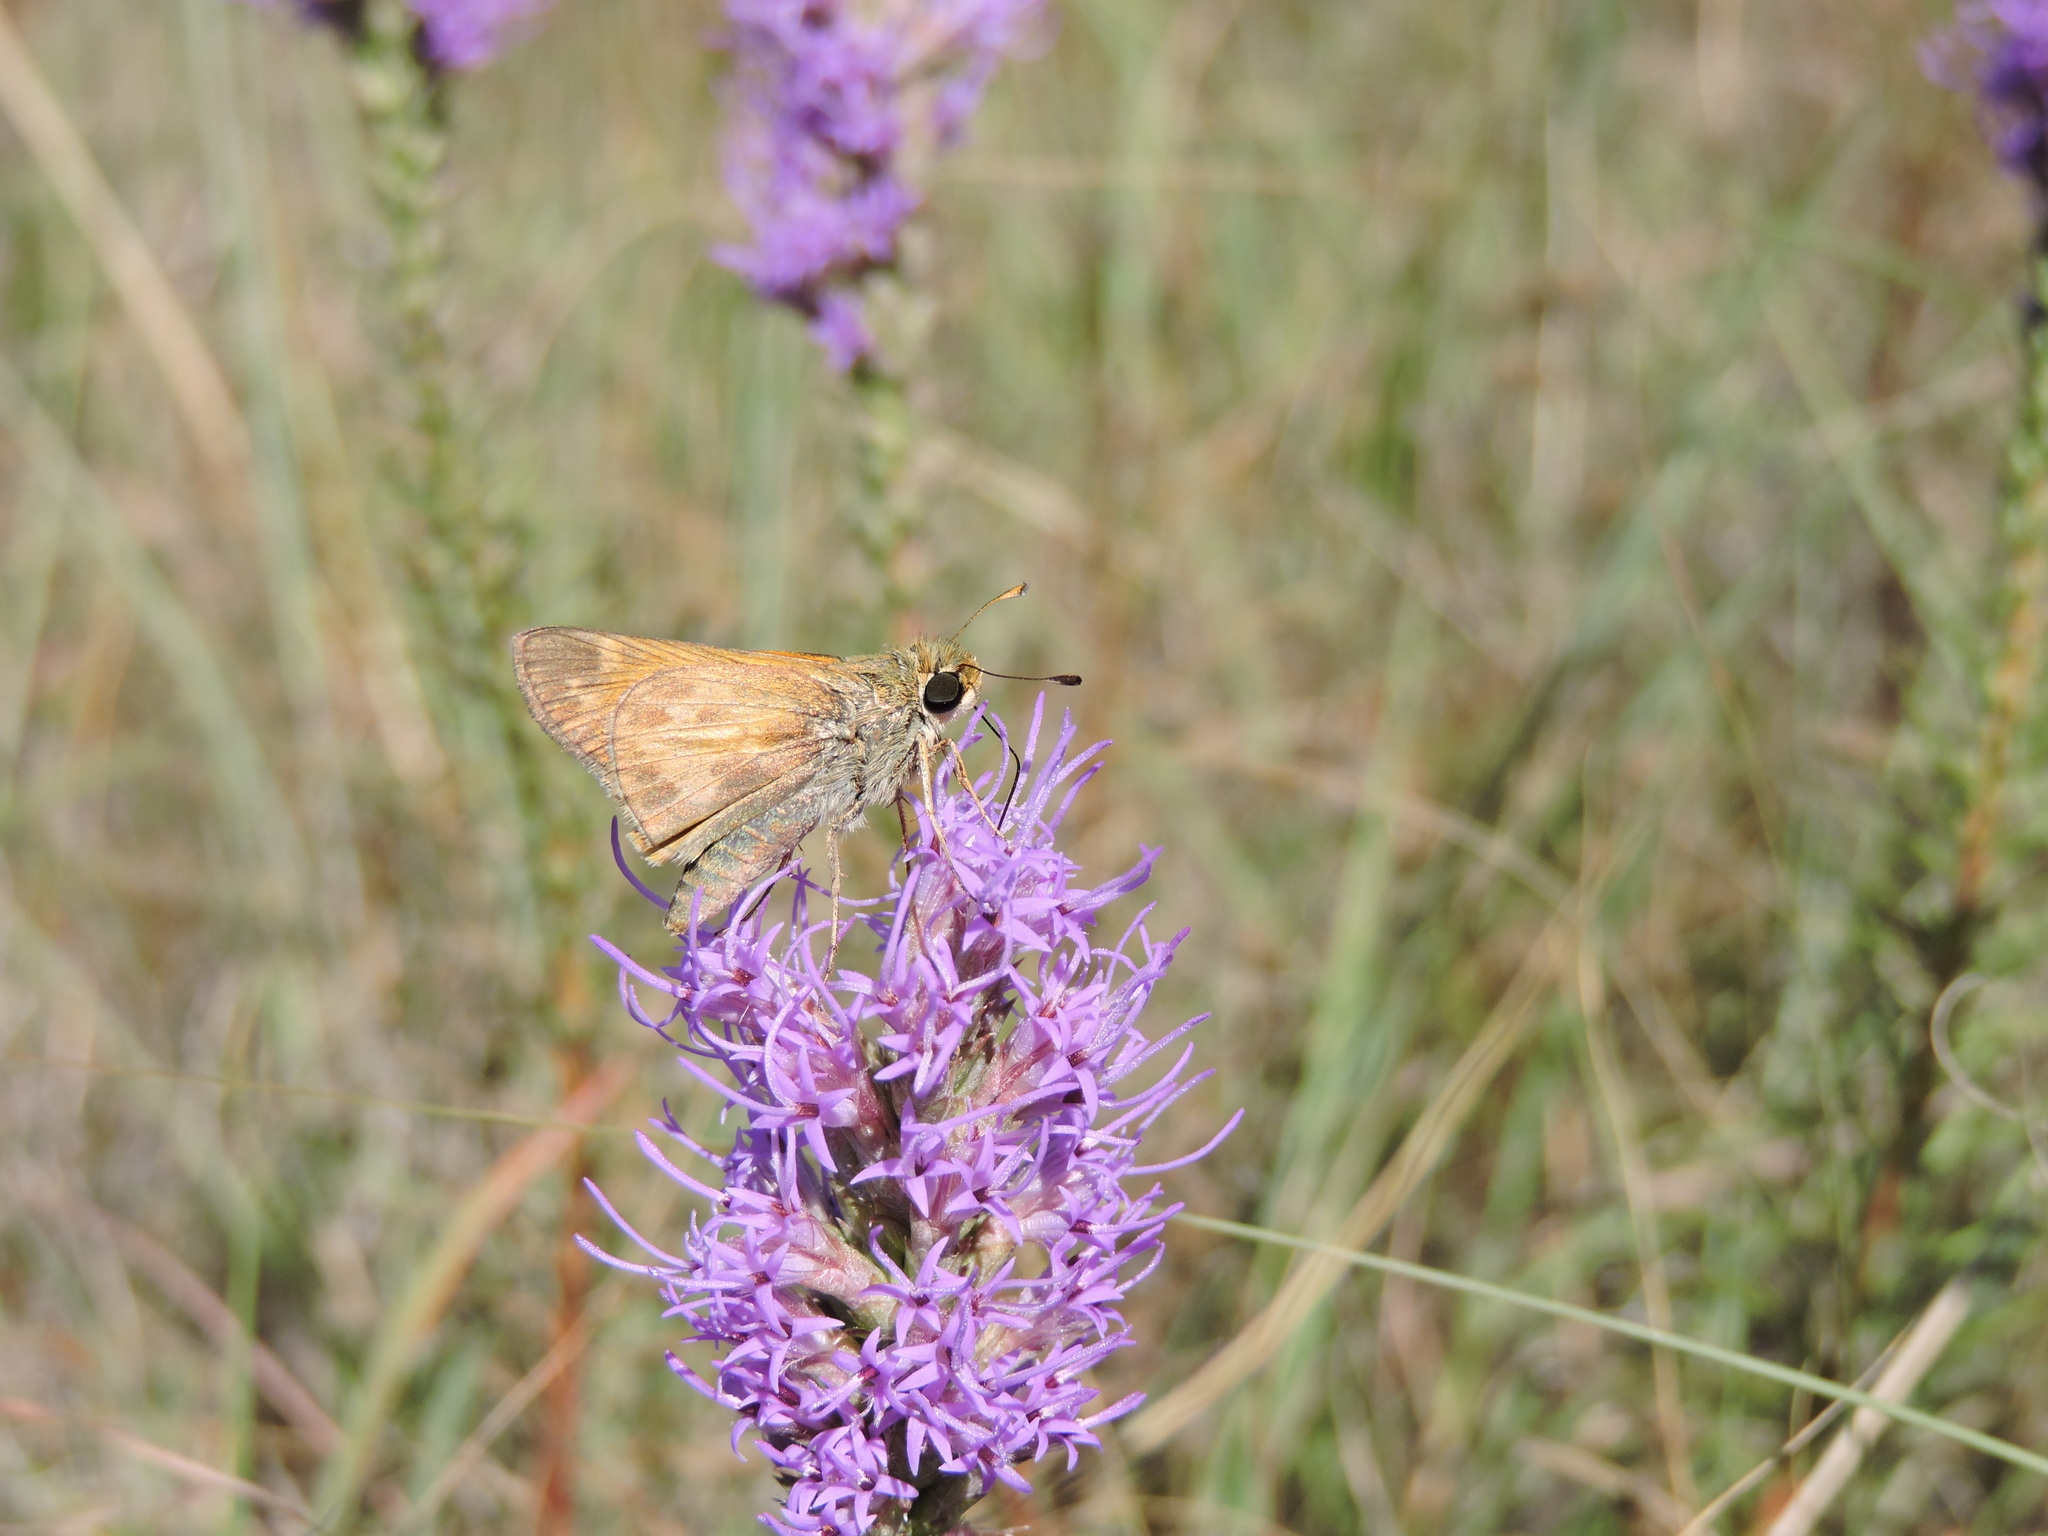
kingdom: Animalia
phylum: Arthropoda
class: Insecta
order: Lepidoptera
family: Hesperiidae
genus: Hylephila
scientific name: Hylephila phyleus
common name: Fiery skipper
